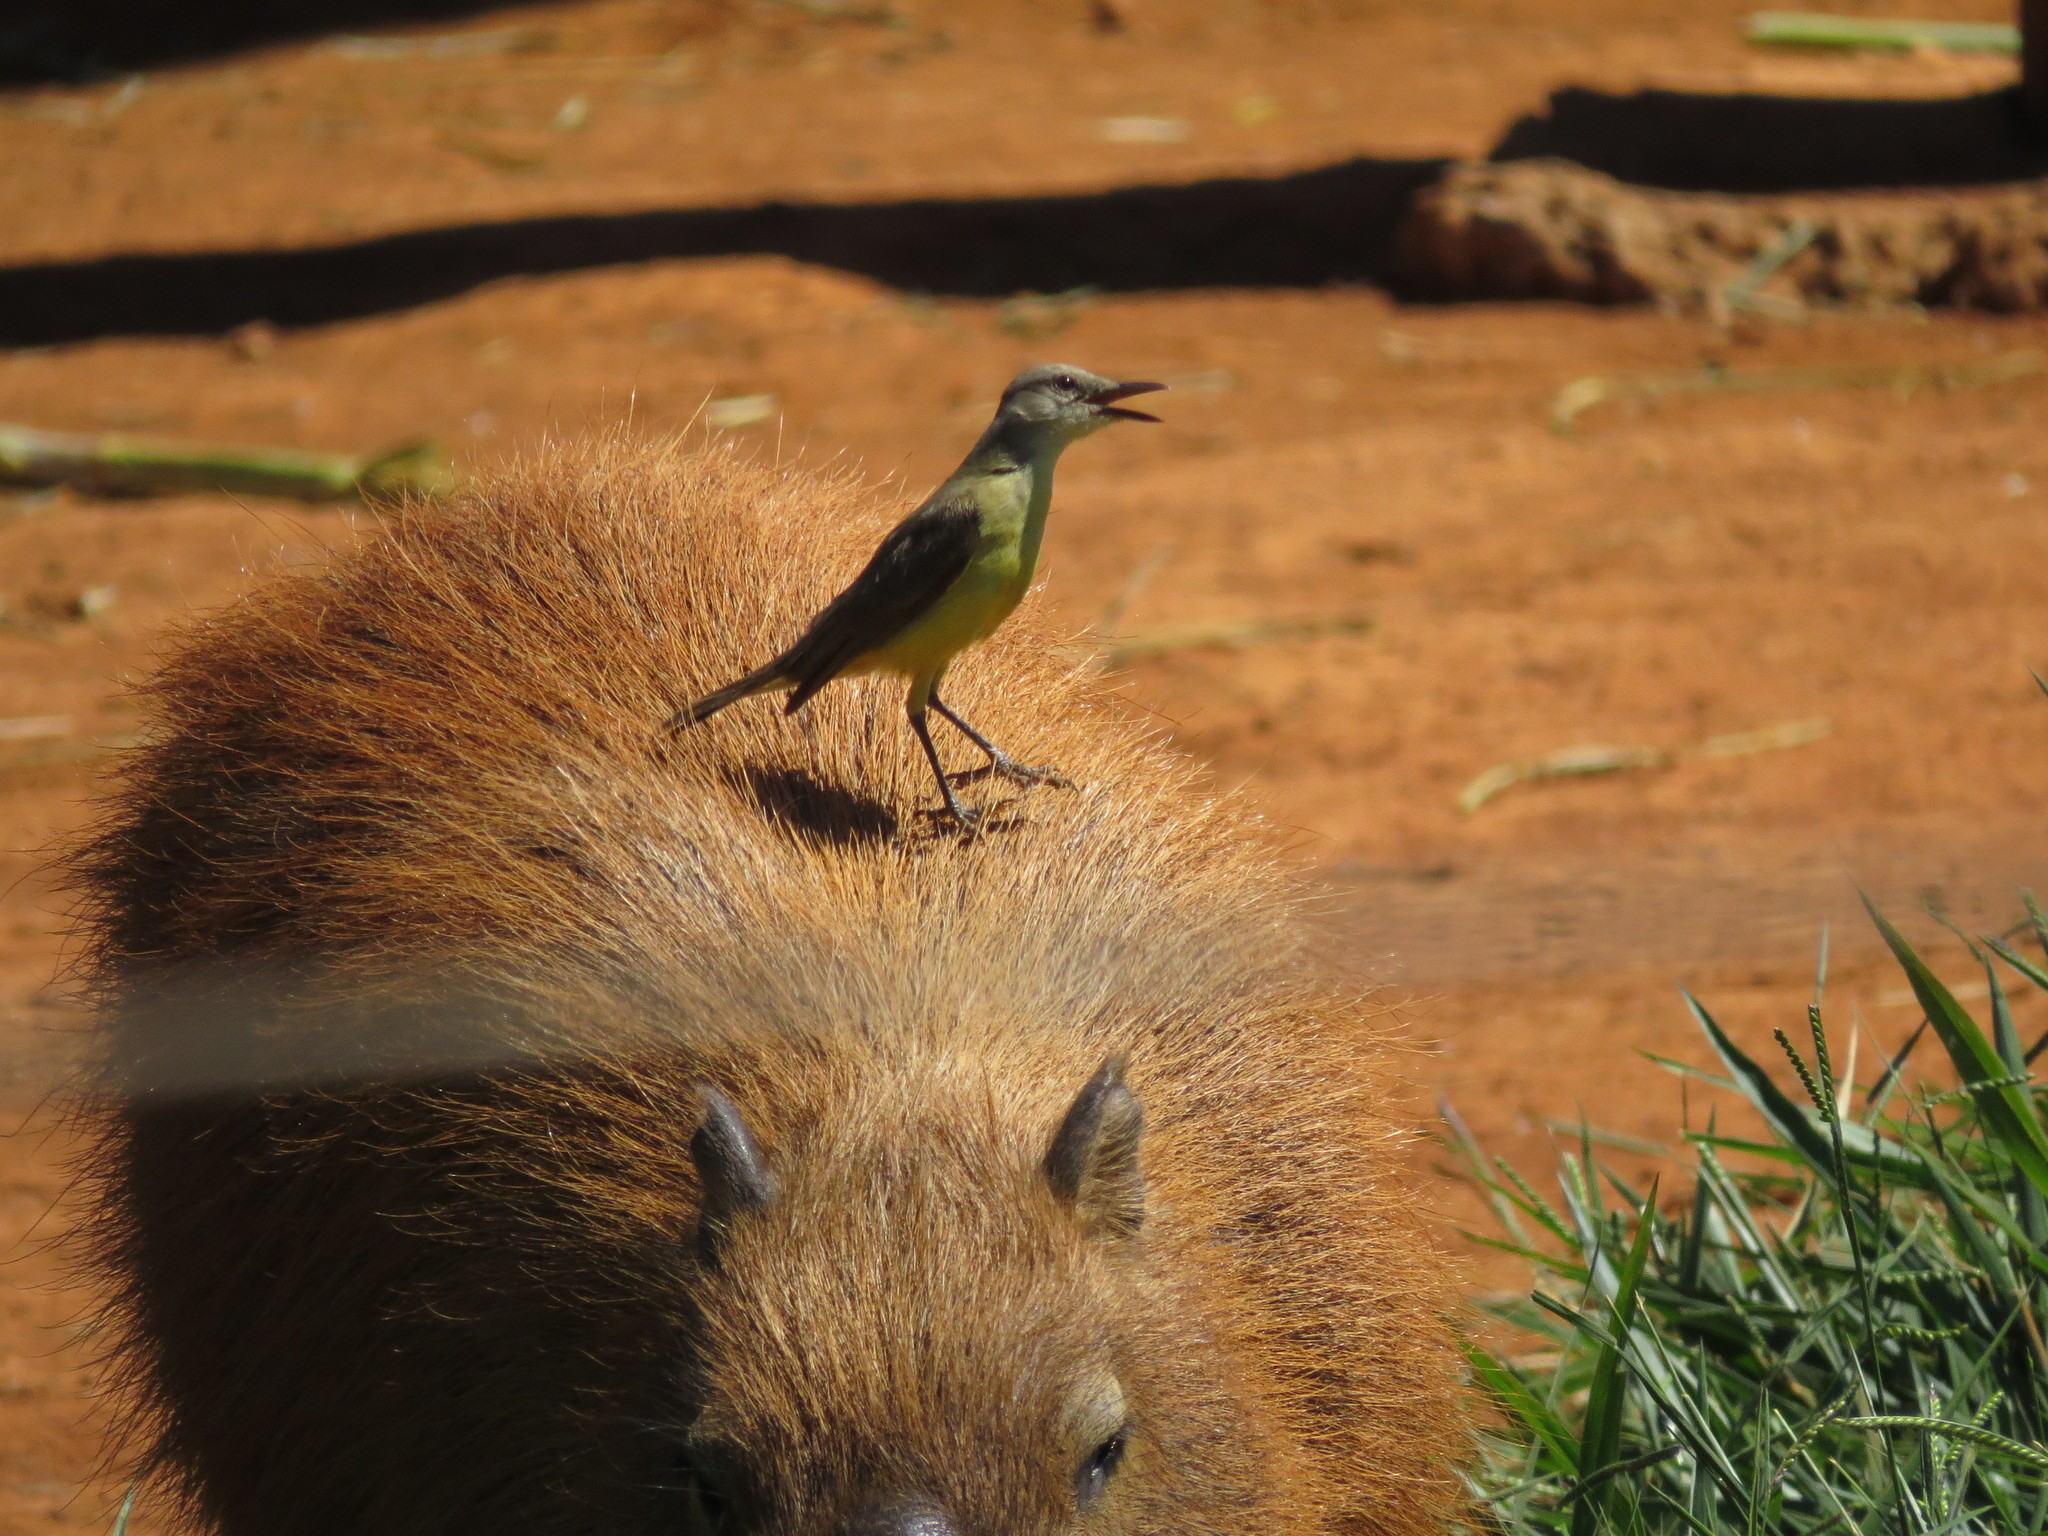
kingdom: Animalia
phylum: Chordata
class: Aves
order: Passeriformes
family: Tyrannidae
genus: Machetornis
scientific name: Machetornis rixosa
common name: Cattle tyrant
